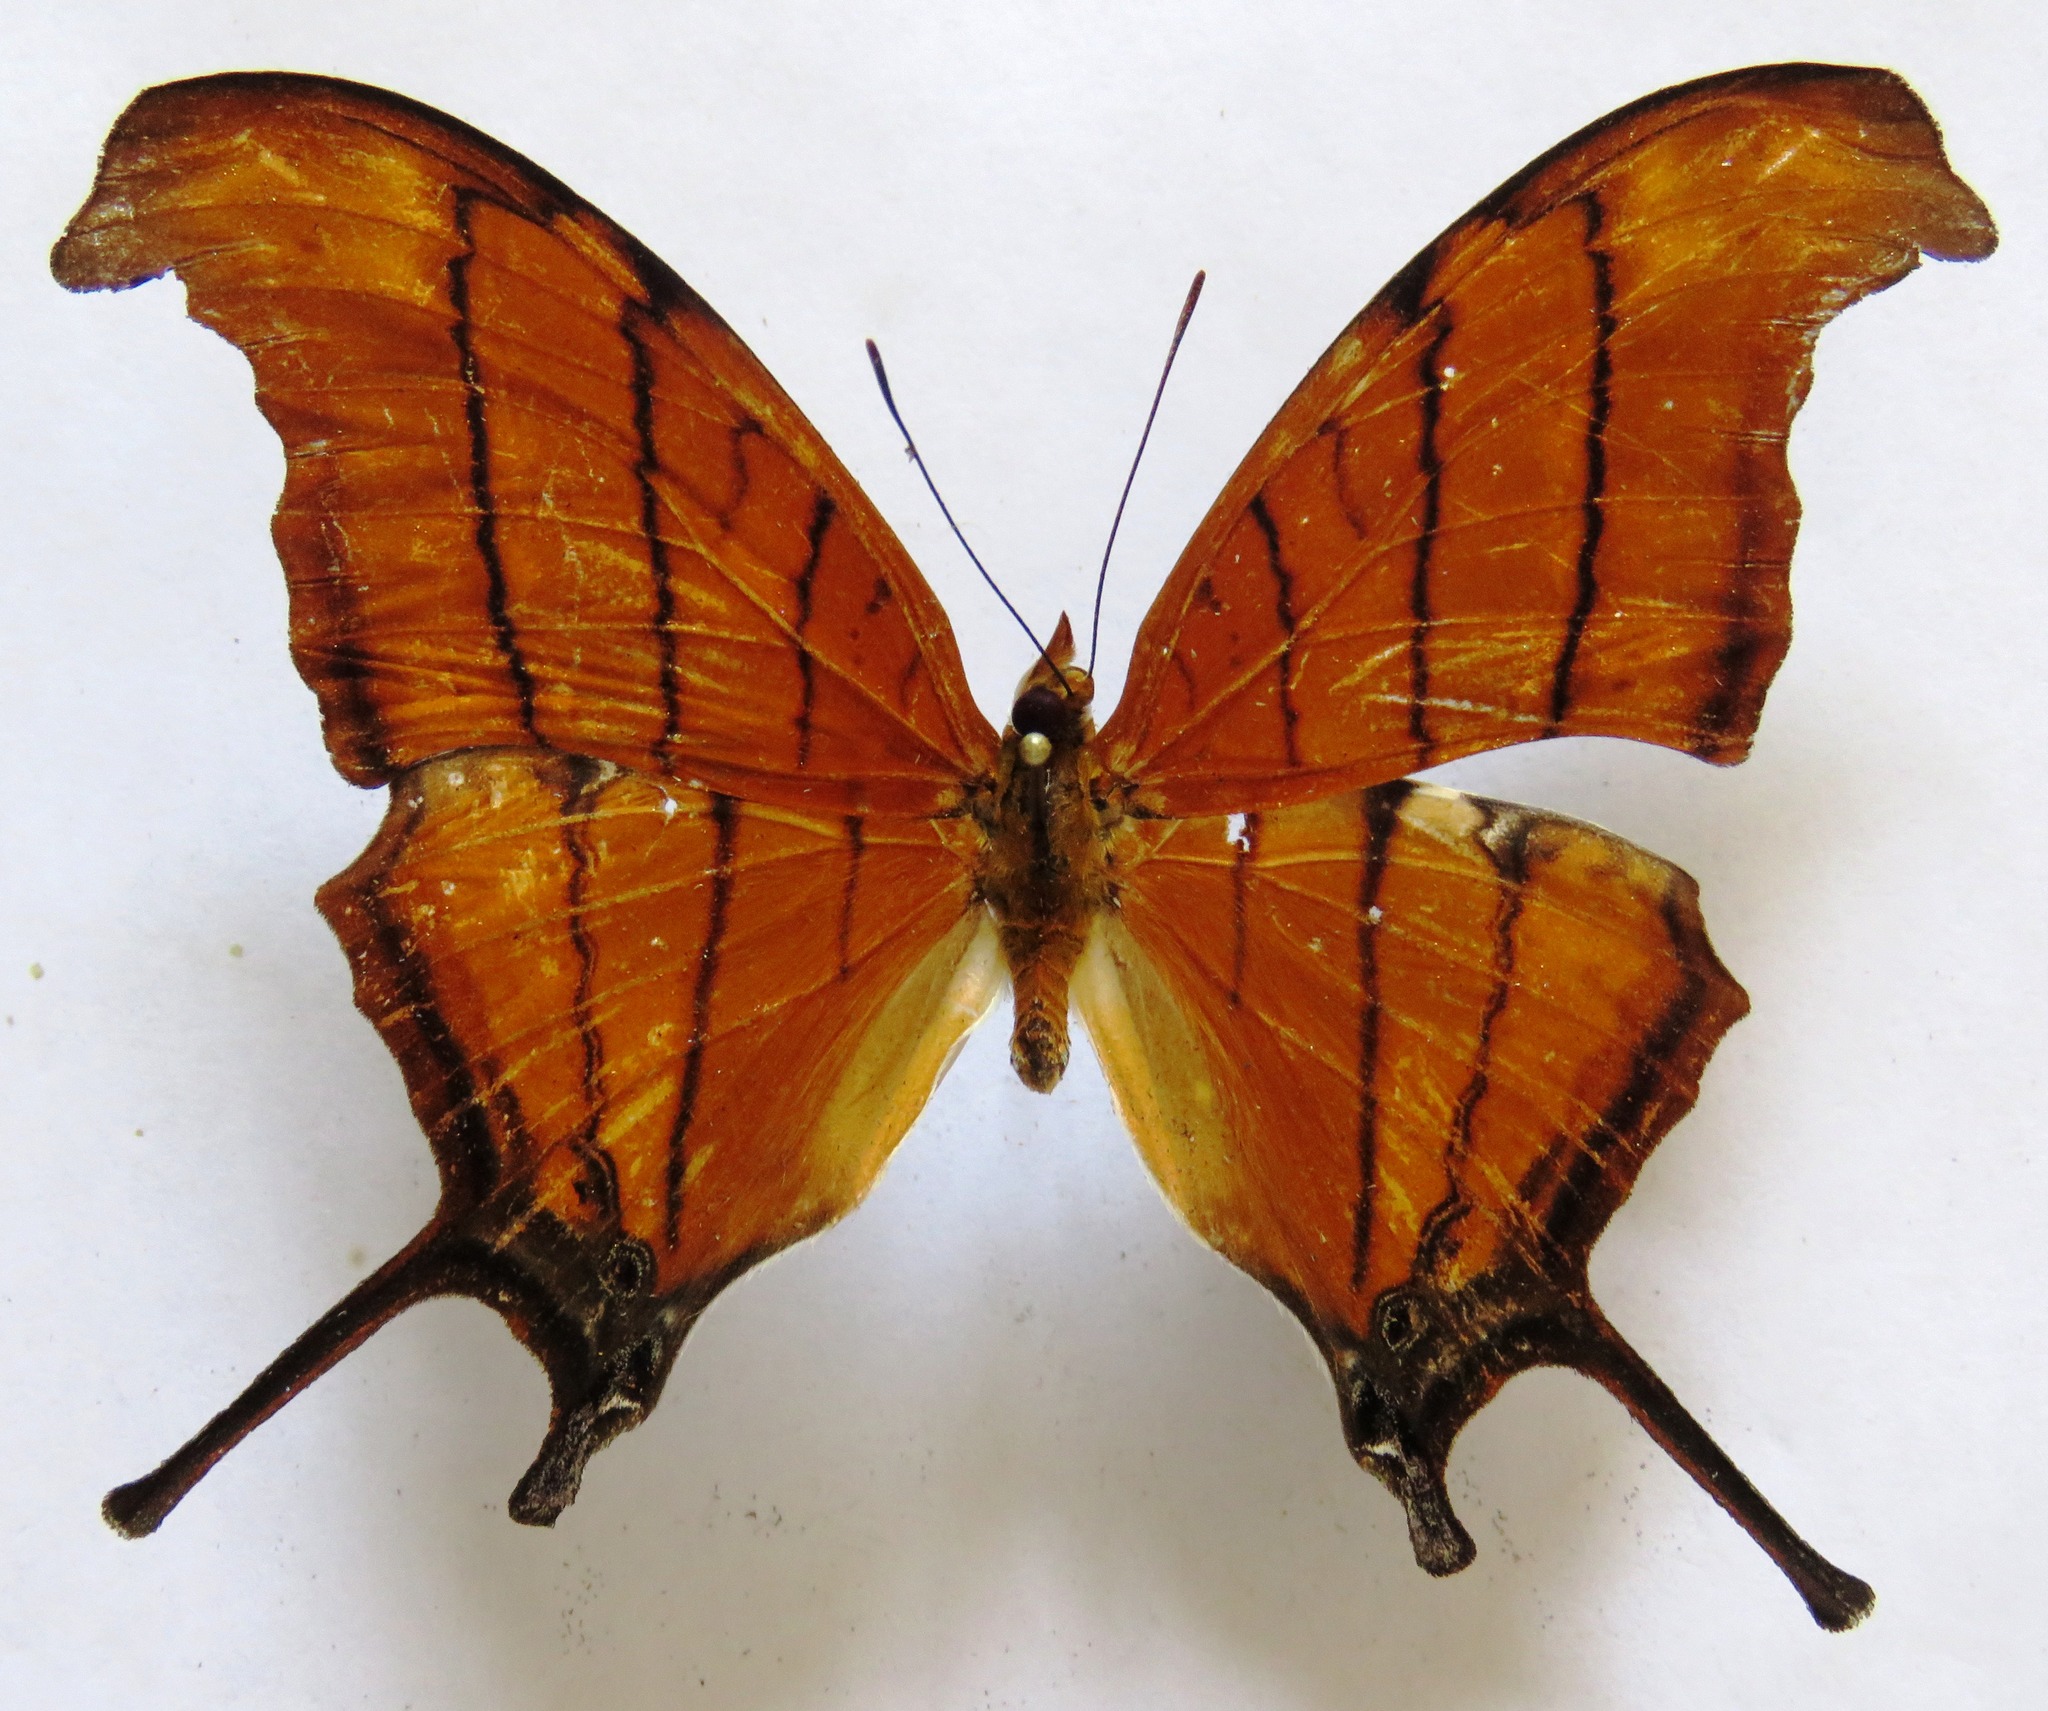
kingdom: Animalia
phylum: Arthropoda
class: Insecta
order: Lepidoptera
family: Nymphalidae
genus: Marpesia
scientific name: Marpesia petreus
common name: Red dagger wing
